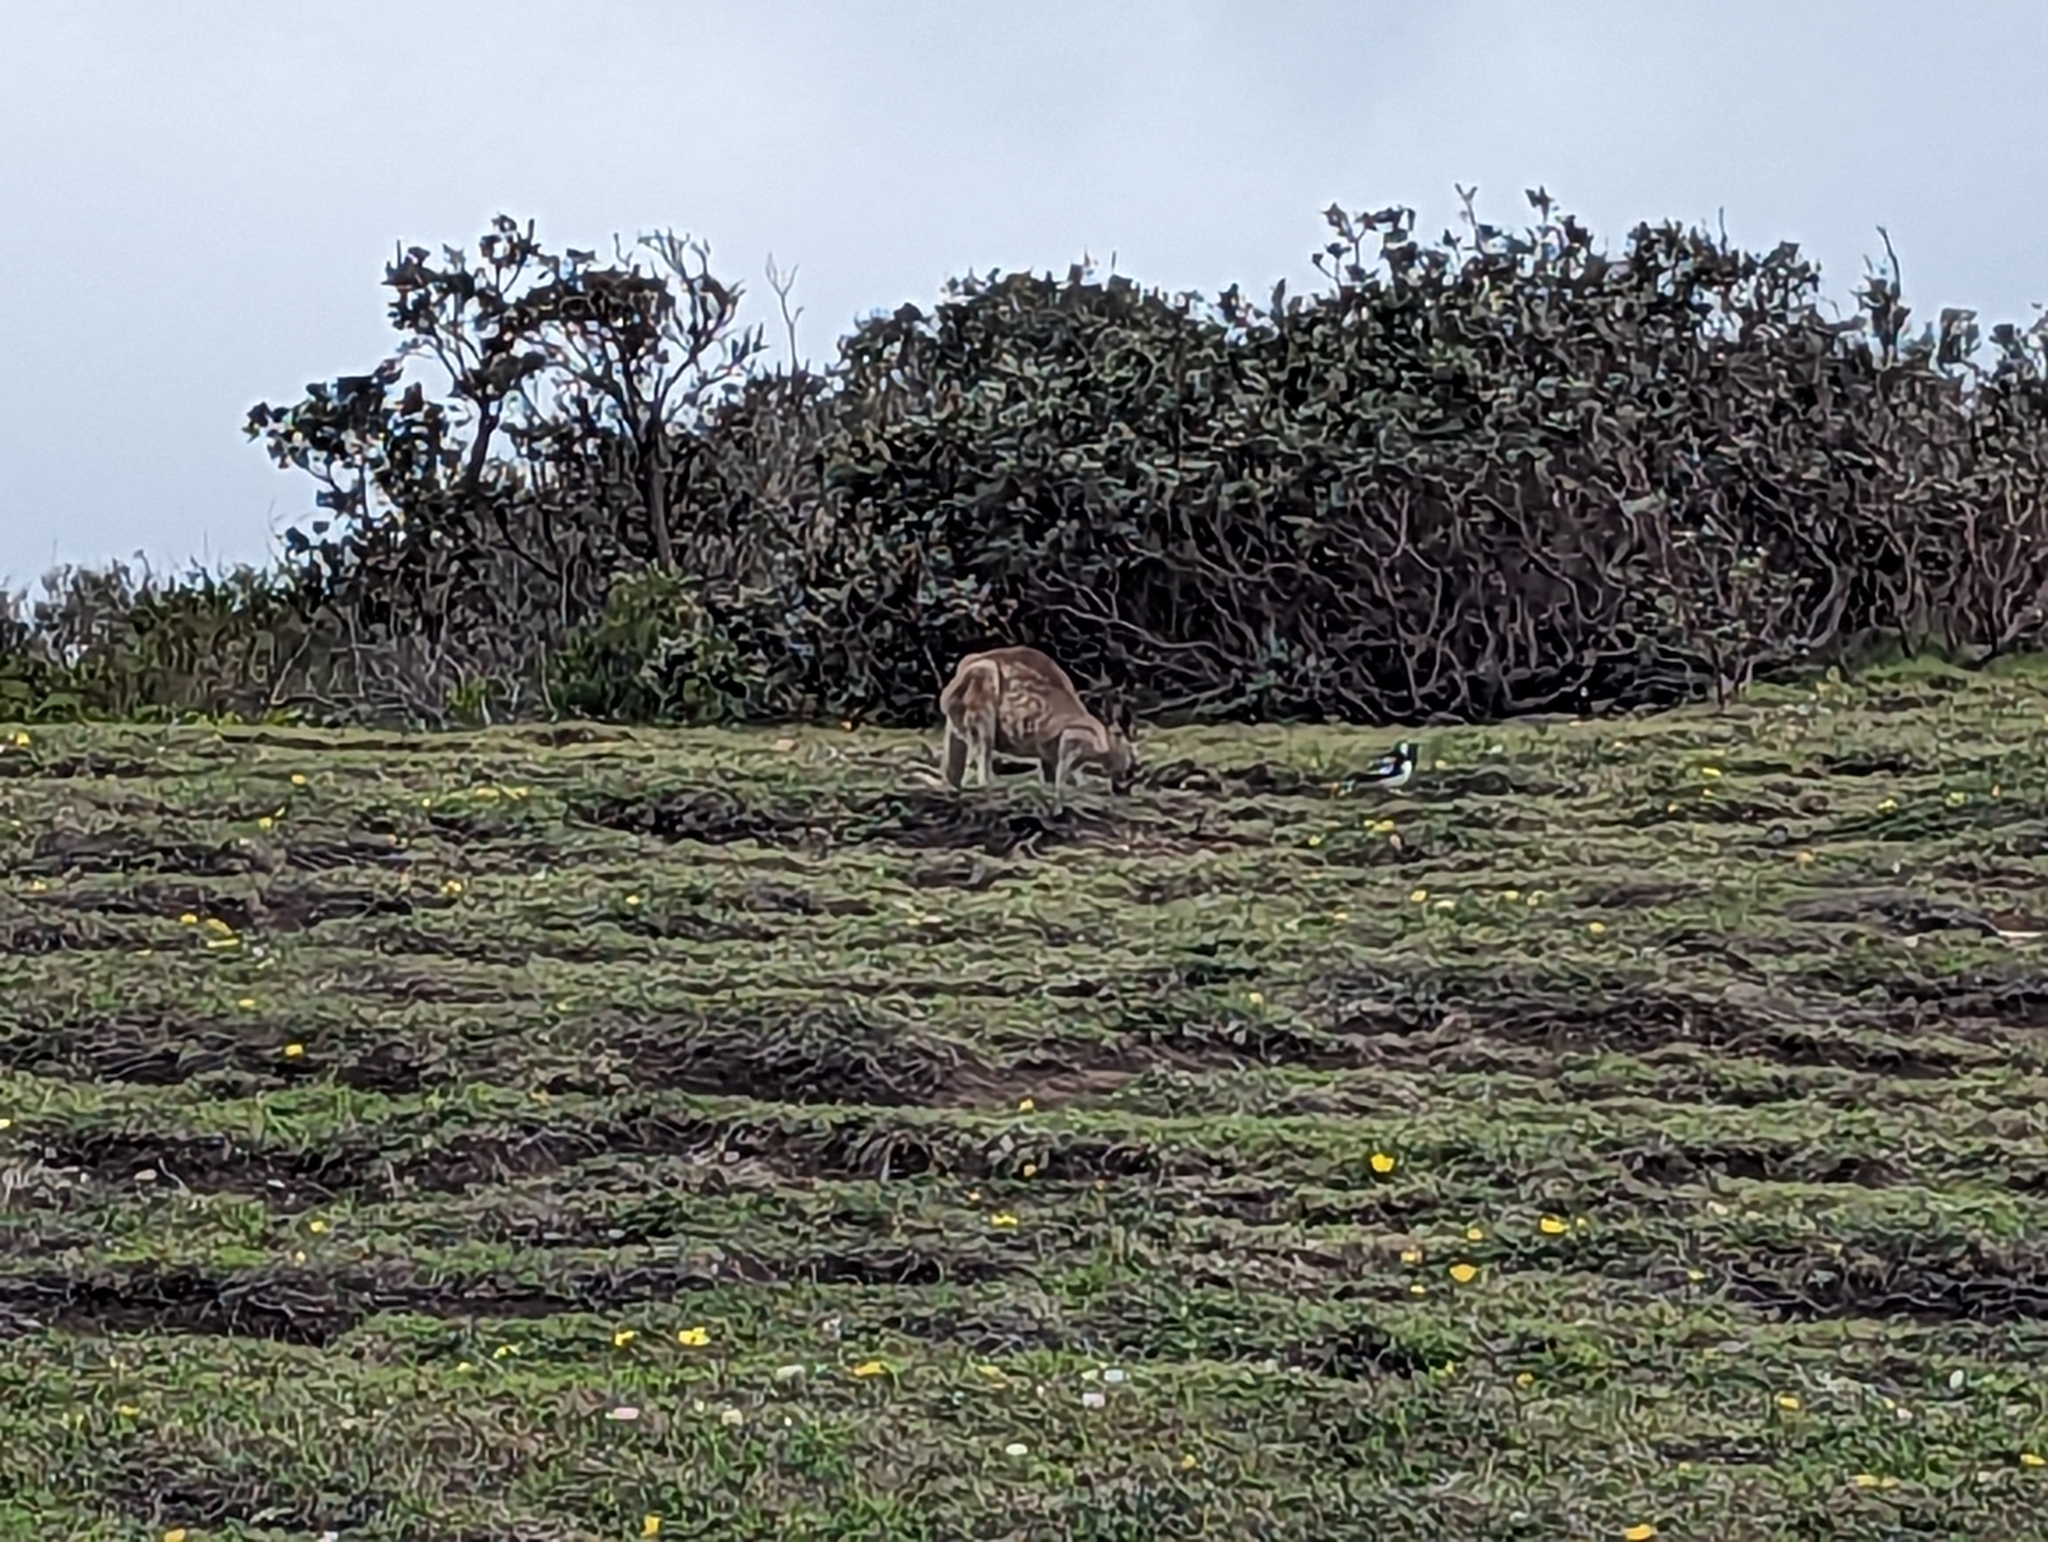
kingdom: Animalia
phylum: Chordata
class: Mammalia
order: Diprotodontia
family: Macropodidae
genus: Macropus
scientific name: Macropus giganteus
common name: Eastern grey kangaroo
